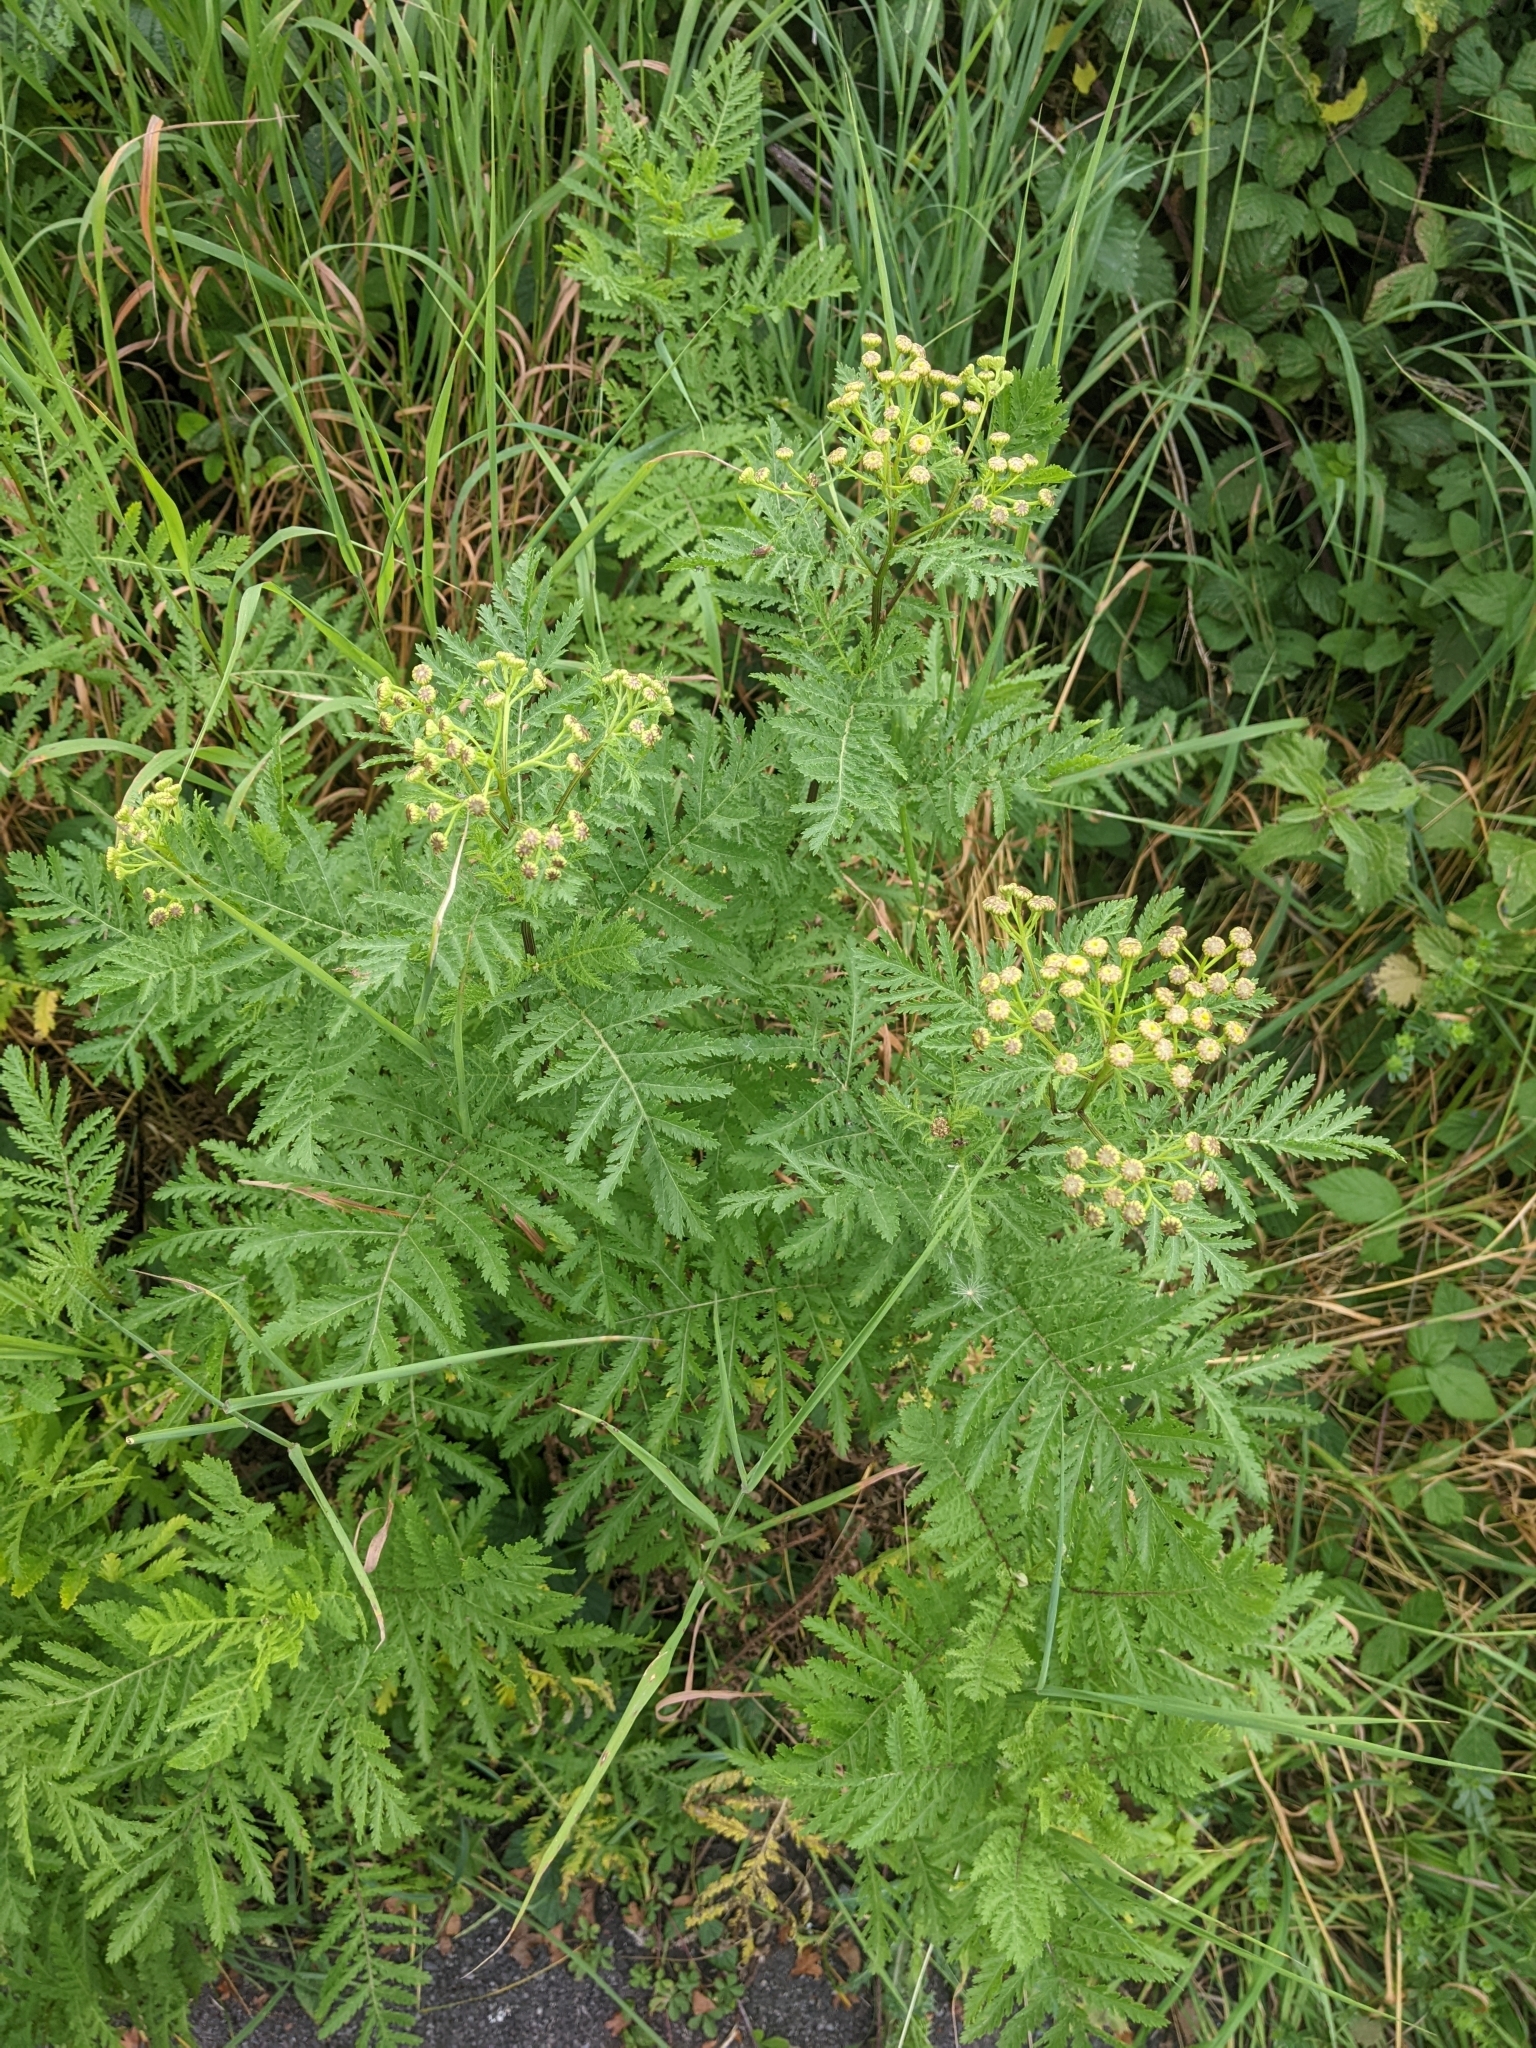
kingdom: Plantae
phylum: Tracheophyta
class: Magnoliopsida
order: Asterales
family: Asteraceae
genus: Tanacetum
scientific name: Tanacetum vulgare
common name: Common tansy
